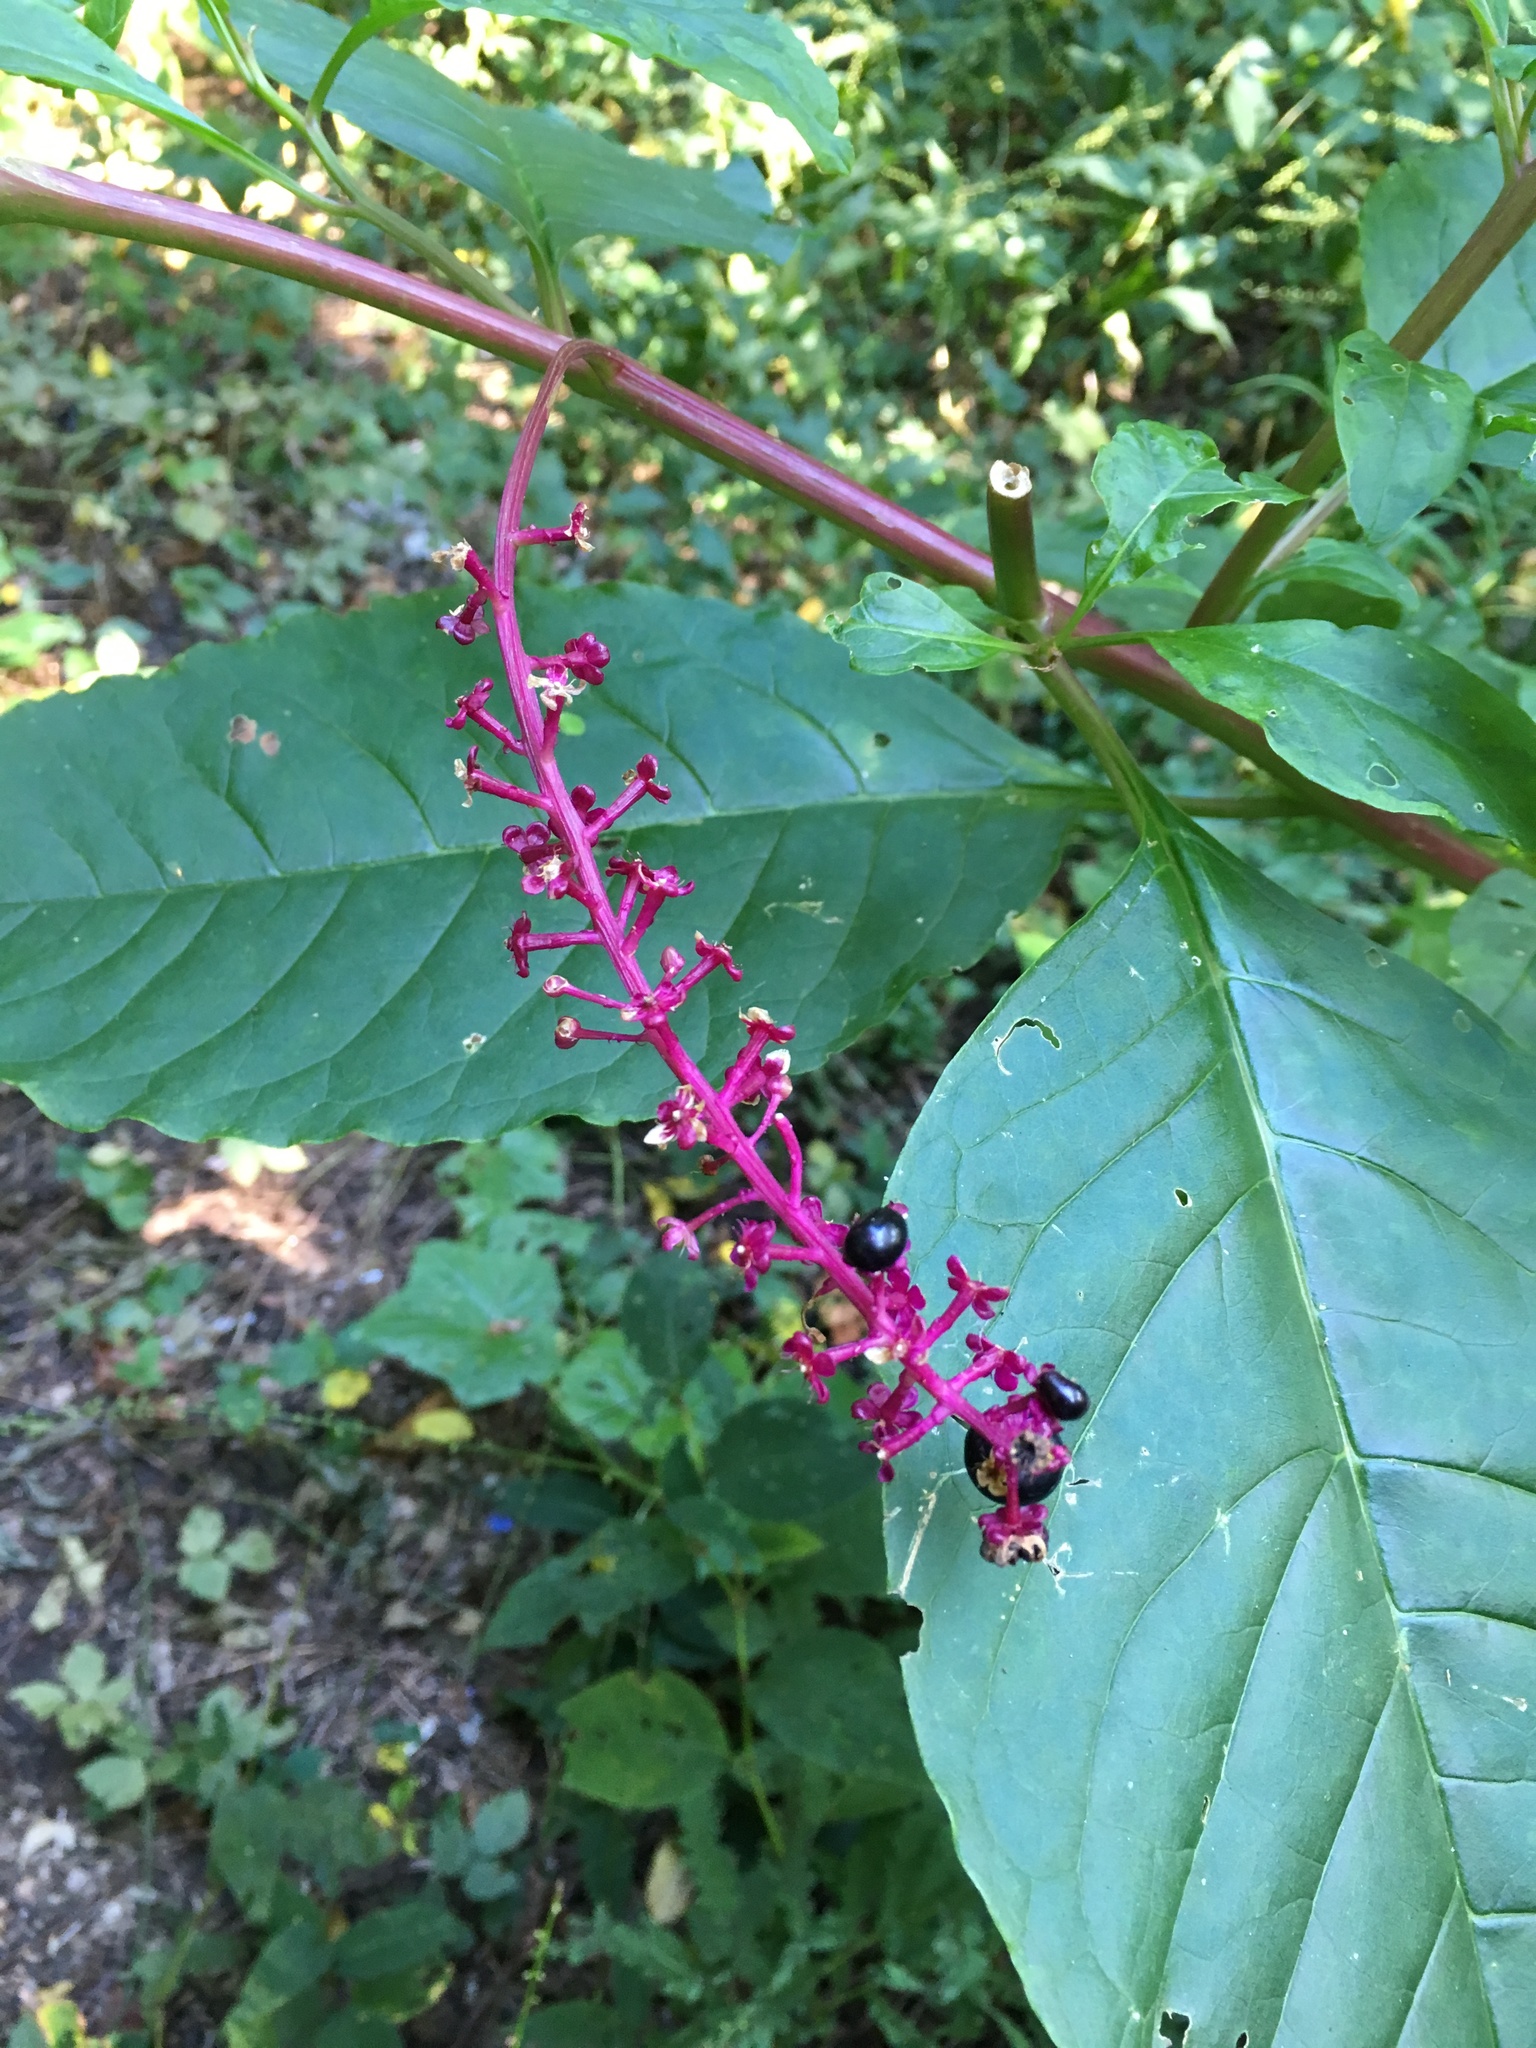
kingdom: Plantae
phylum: Tracheophyta
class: Magnoliopsida
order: Caryophyllales
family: Phytolaccaceae
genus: Phytolacca
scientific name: Phytolacca americana
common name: American pokeweed
